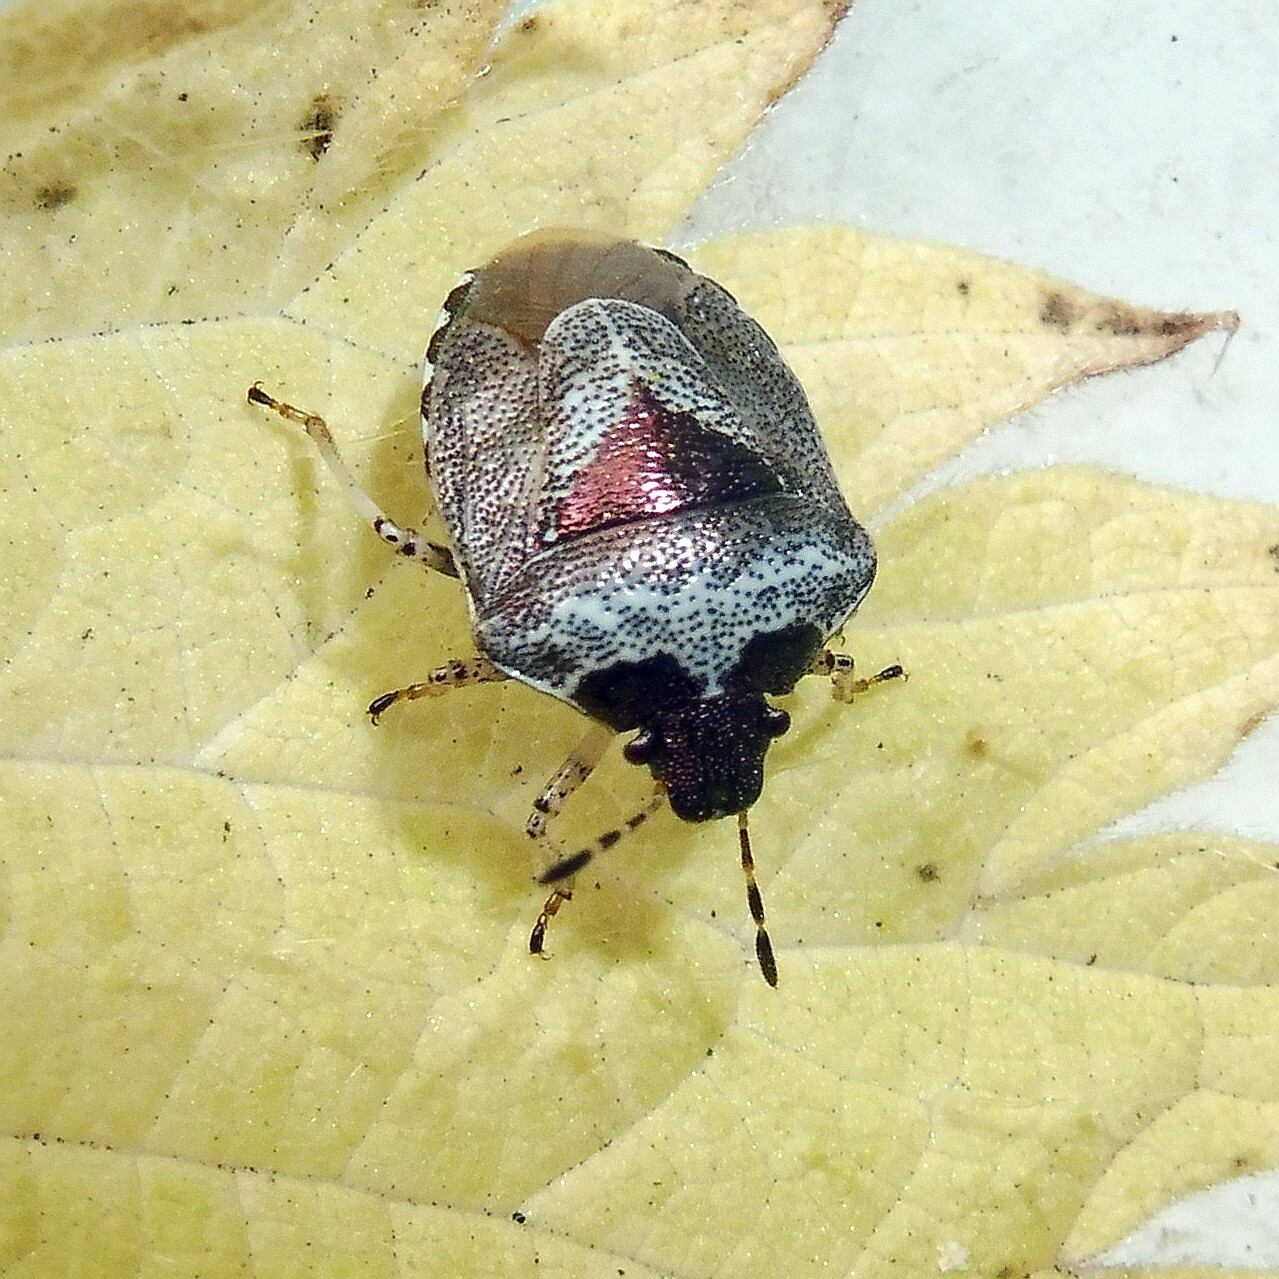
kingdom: Animalia
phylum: Arthropoda
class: Insecta
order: Hemiptera
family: Pentatomidae
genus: Eysarcoris
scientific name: Eysarcoris venustissimus
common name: Woundwort shieldbug
